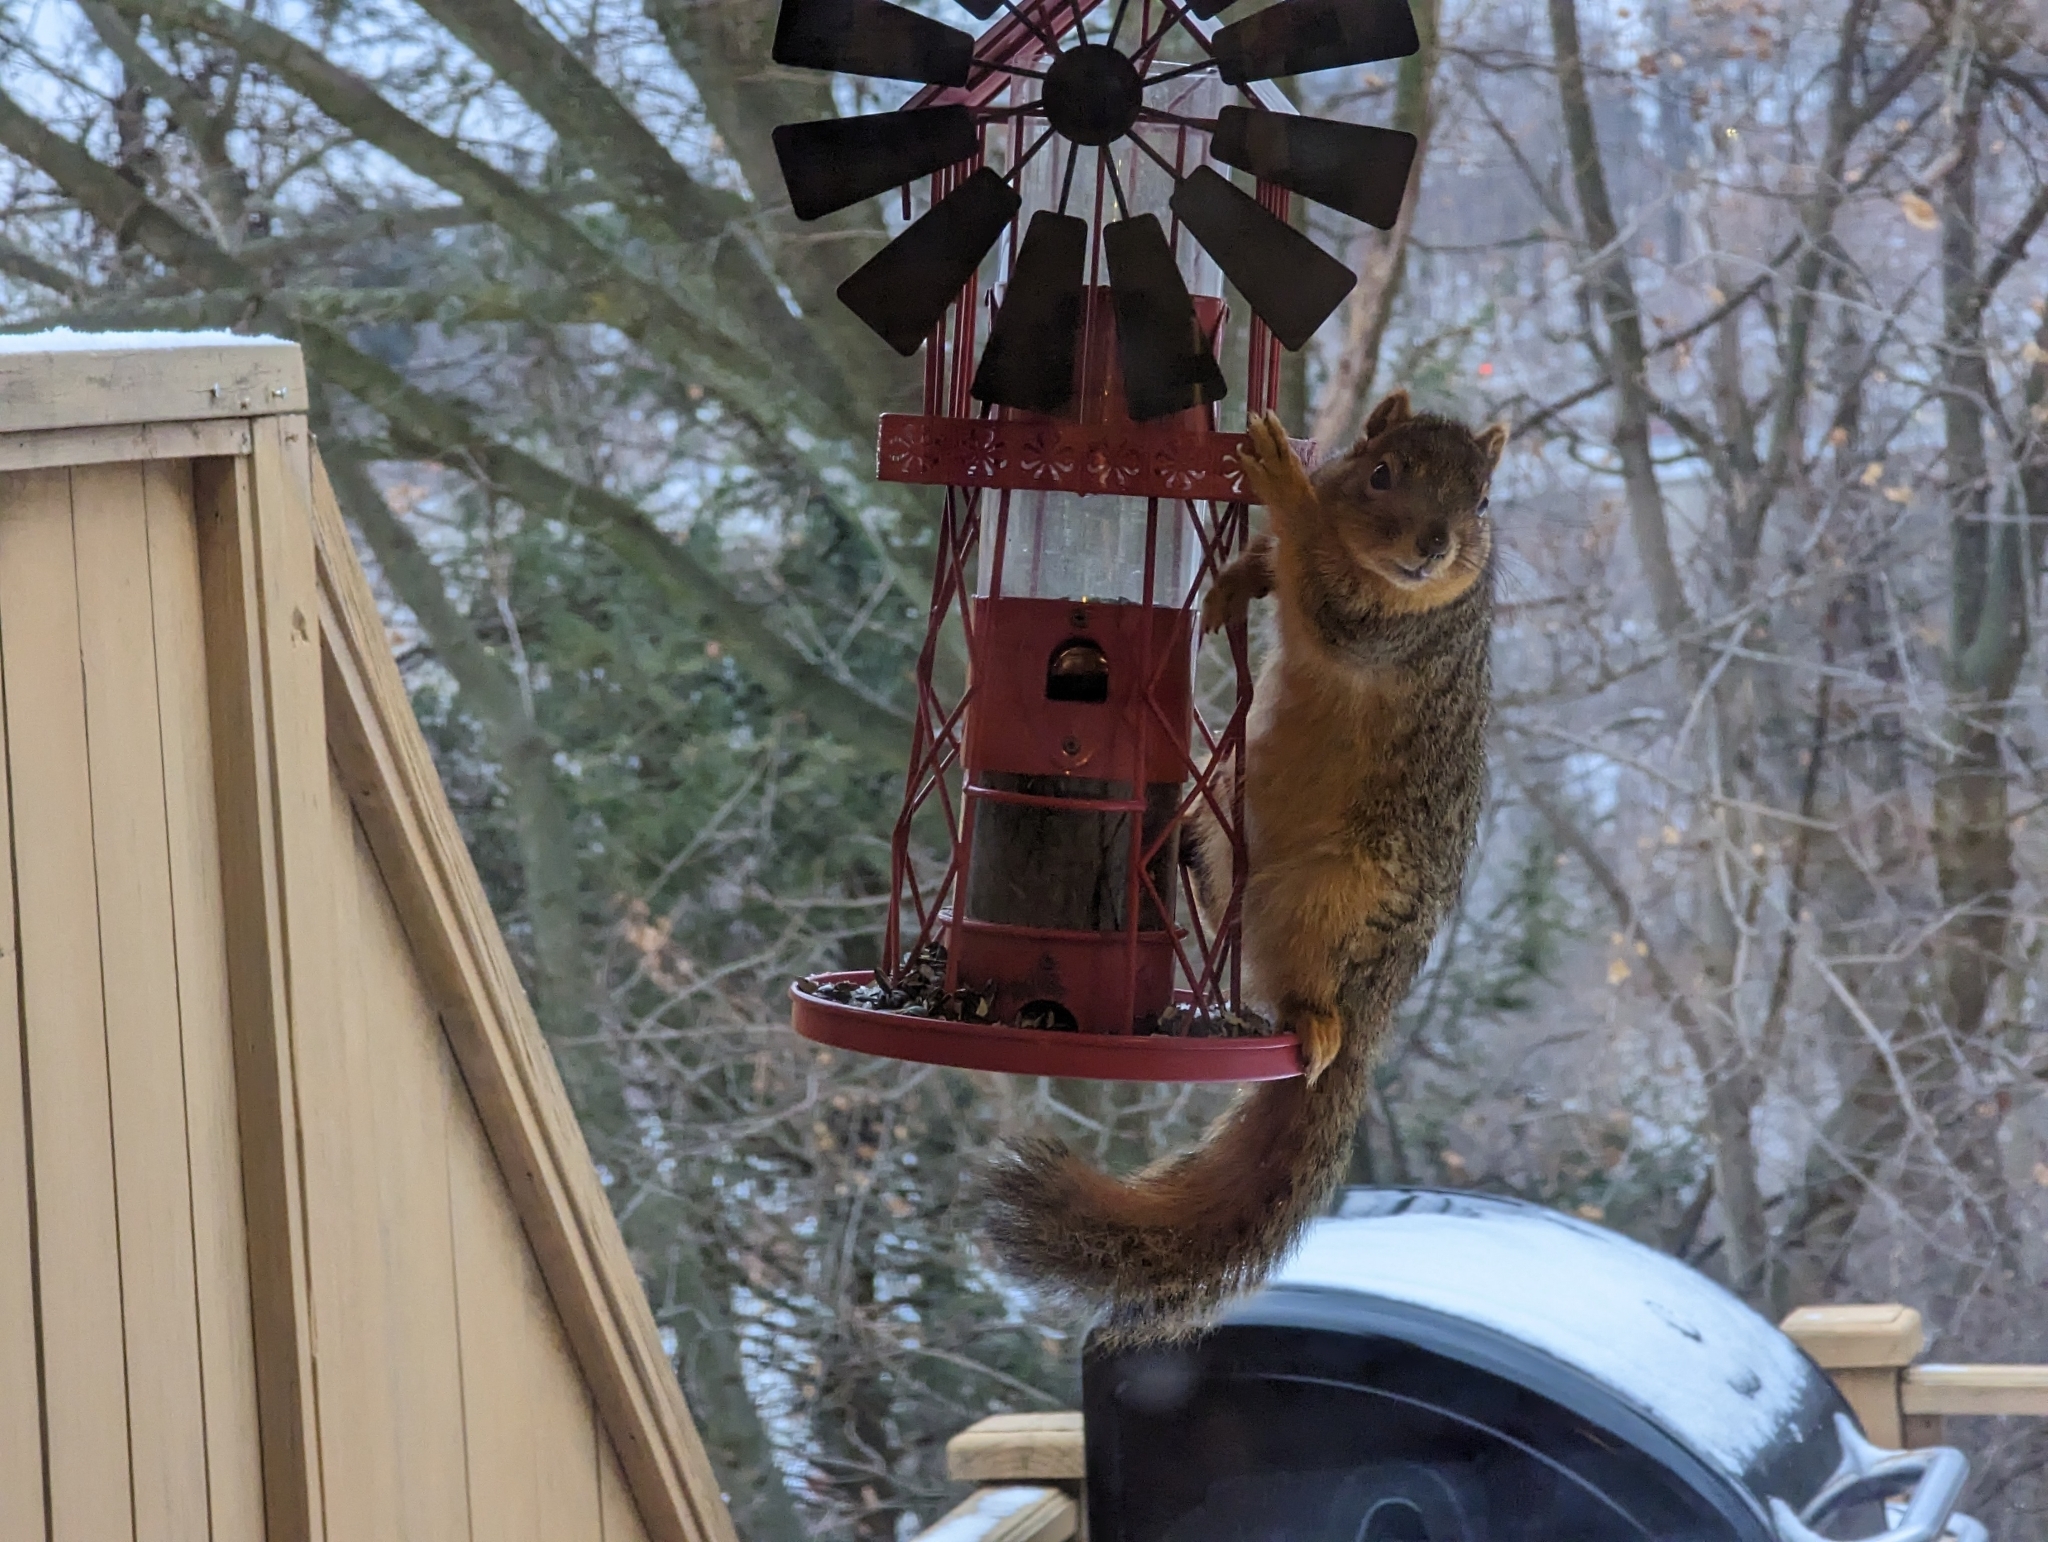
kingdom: Animalia
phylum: Chordata
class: Mammalia
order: Rodentia
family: Sciuridae
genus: Sciurus
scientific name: Sciurus niger
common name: Fox squirrel
